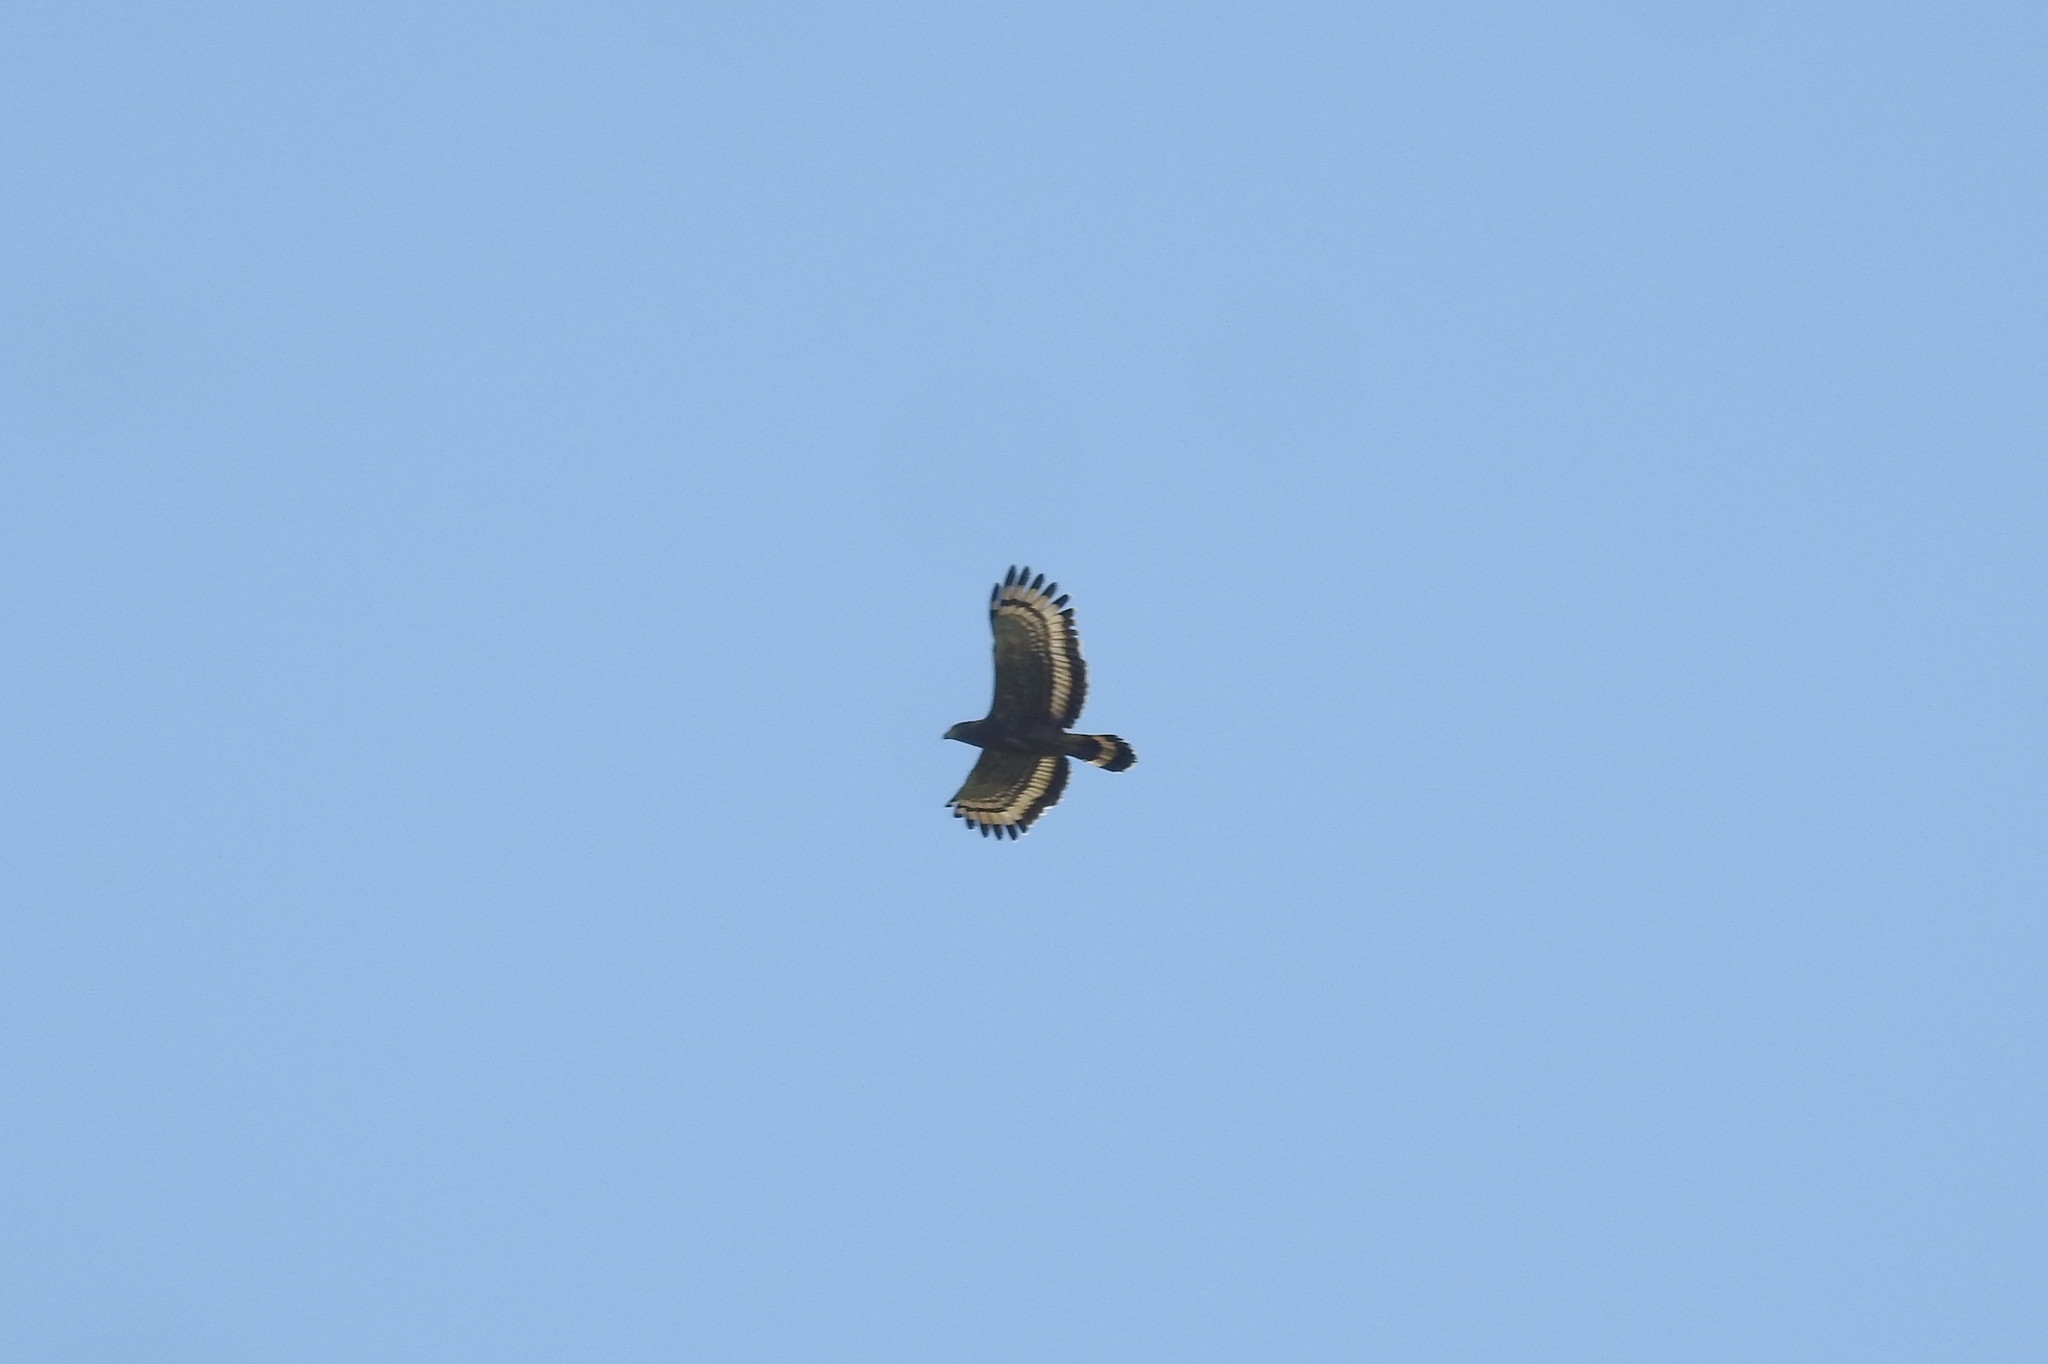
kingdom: Animalia
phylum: Chordata
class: Aves
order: Accipitriformes
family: Accipitridae
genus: Spilornis
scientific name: Spilornis cheela
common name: Crested serpent eagle
